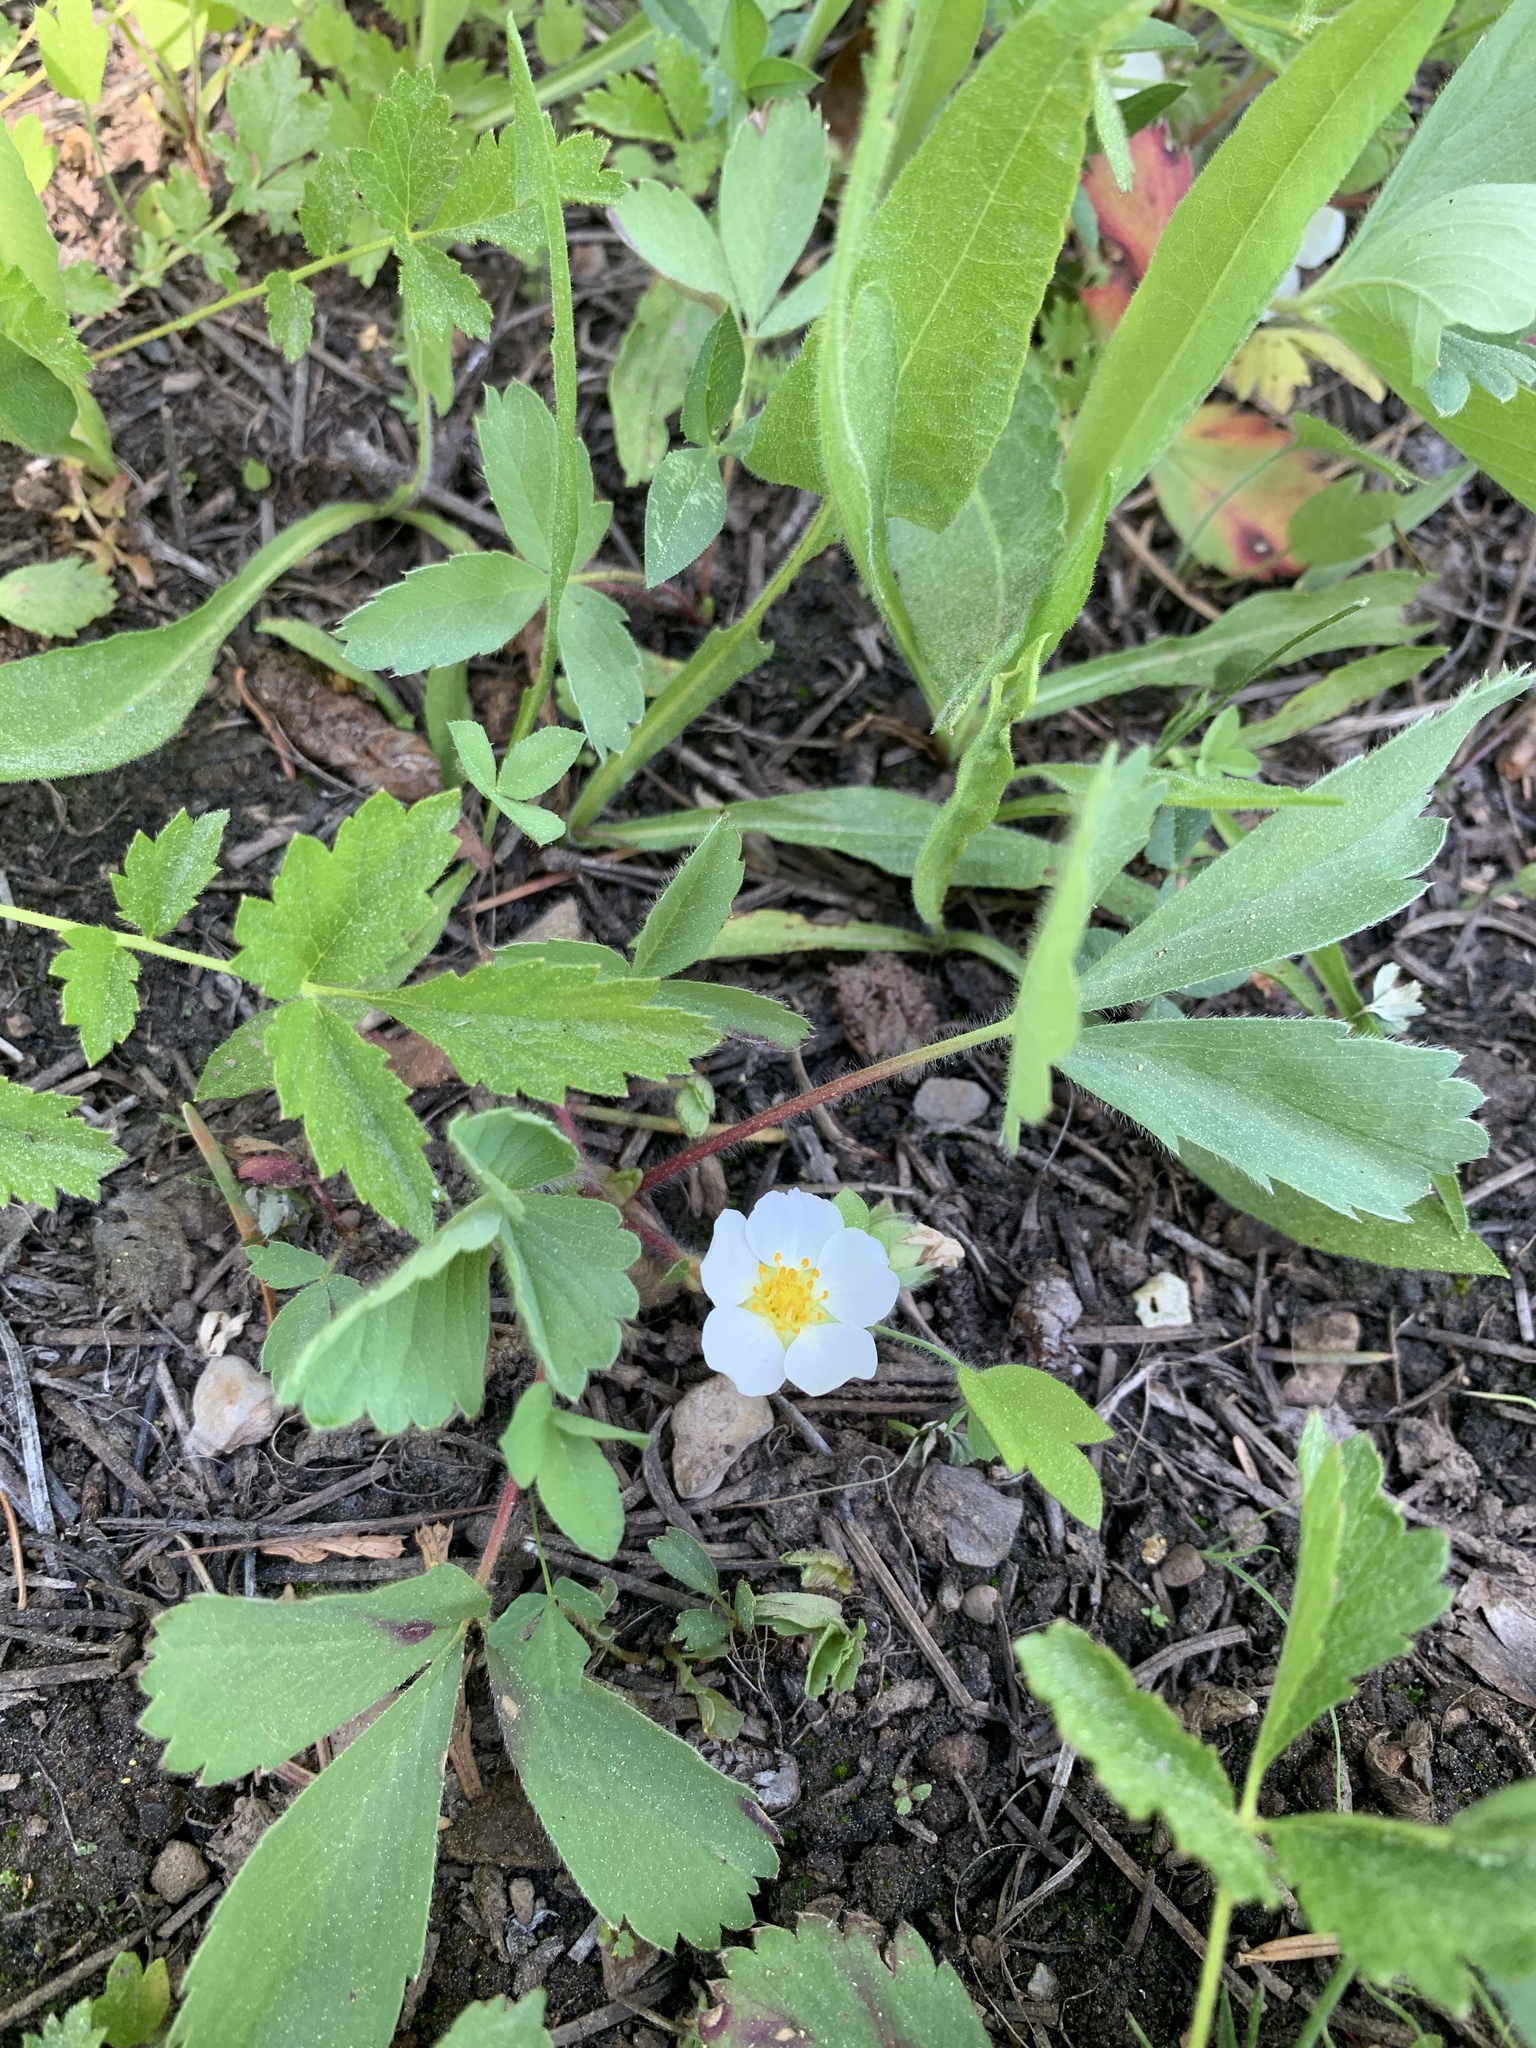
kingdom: Plantae
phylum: Tracheophyta
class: Magnoliopsida
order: Rosales
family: Rosaceae
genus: Fragaria
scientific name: Fragaria virginiana
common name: Thickleaved wild strawberry
